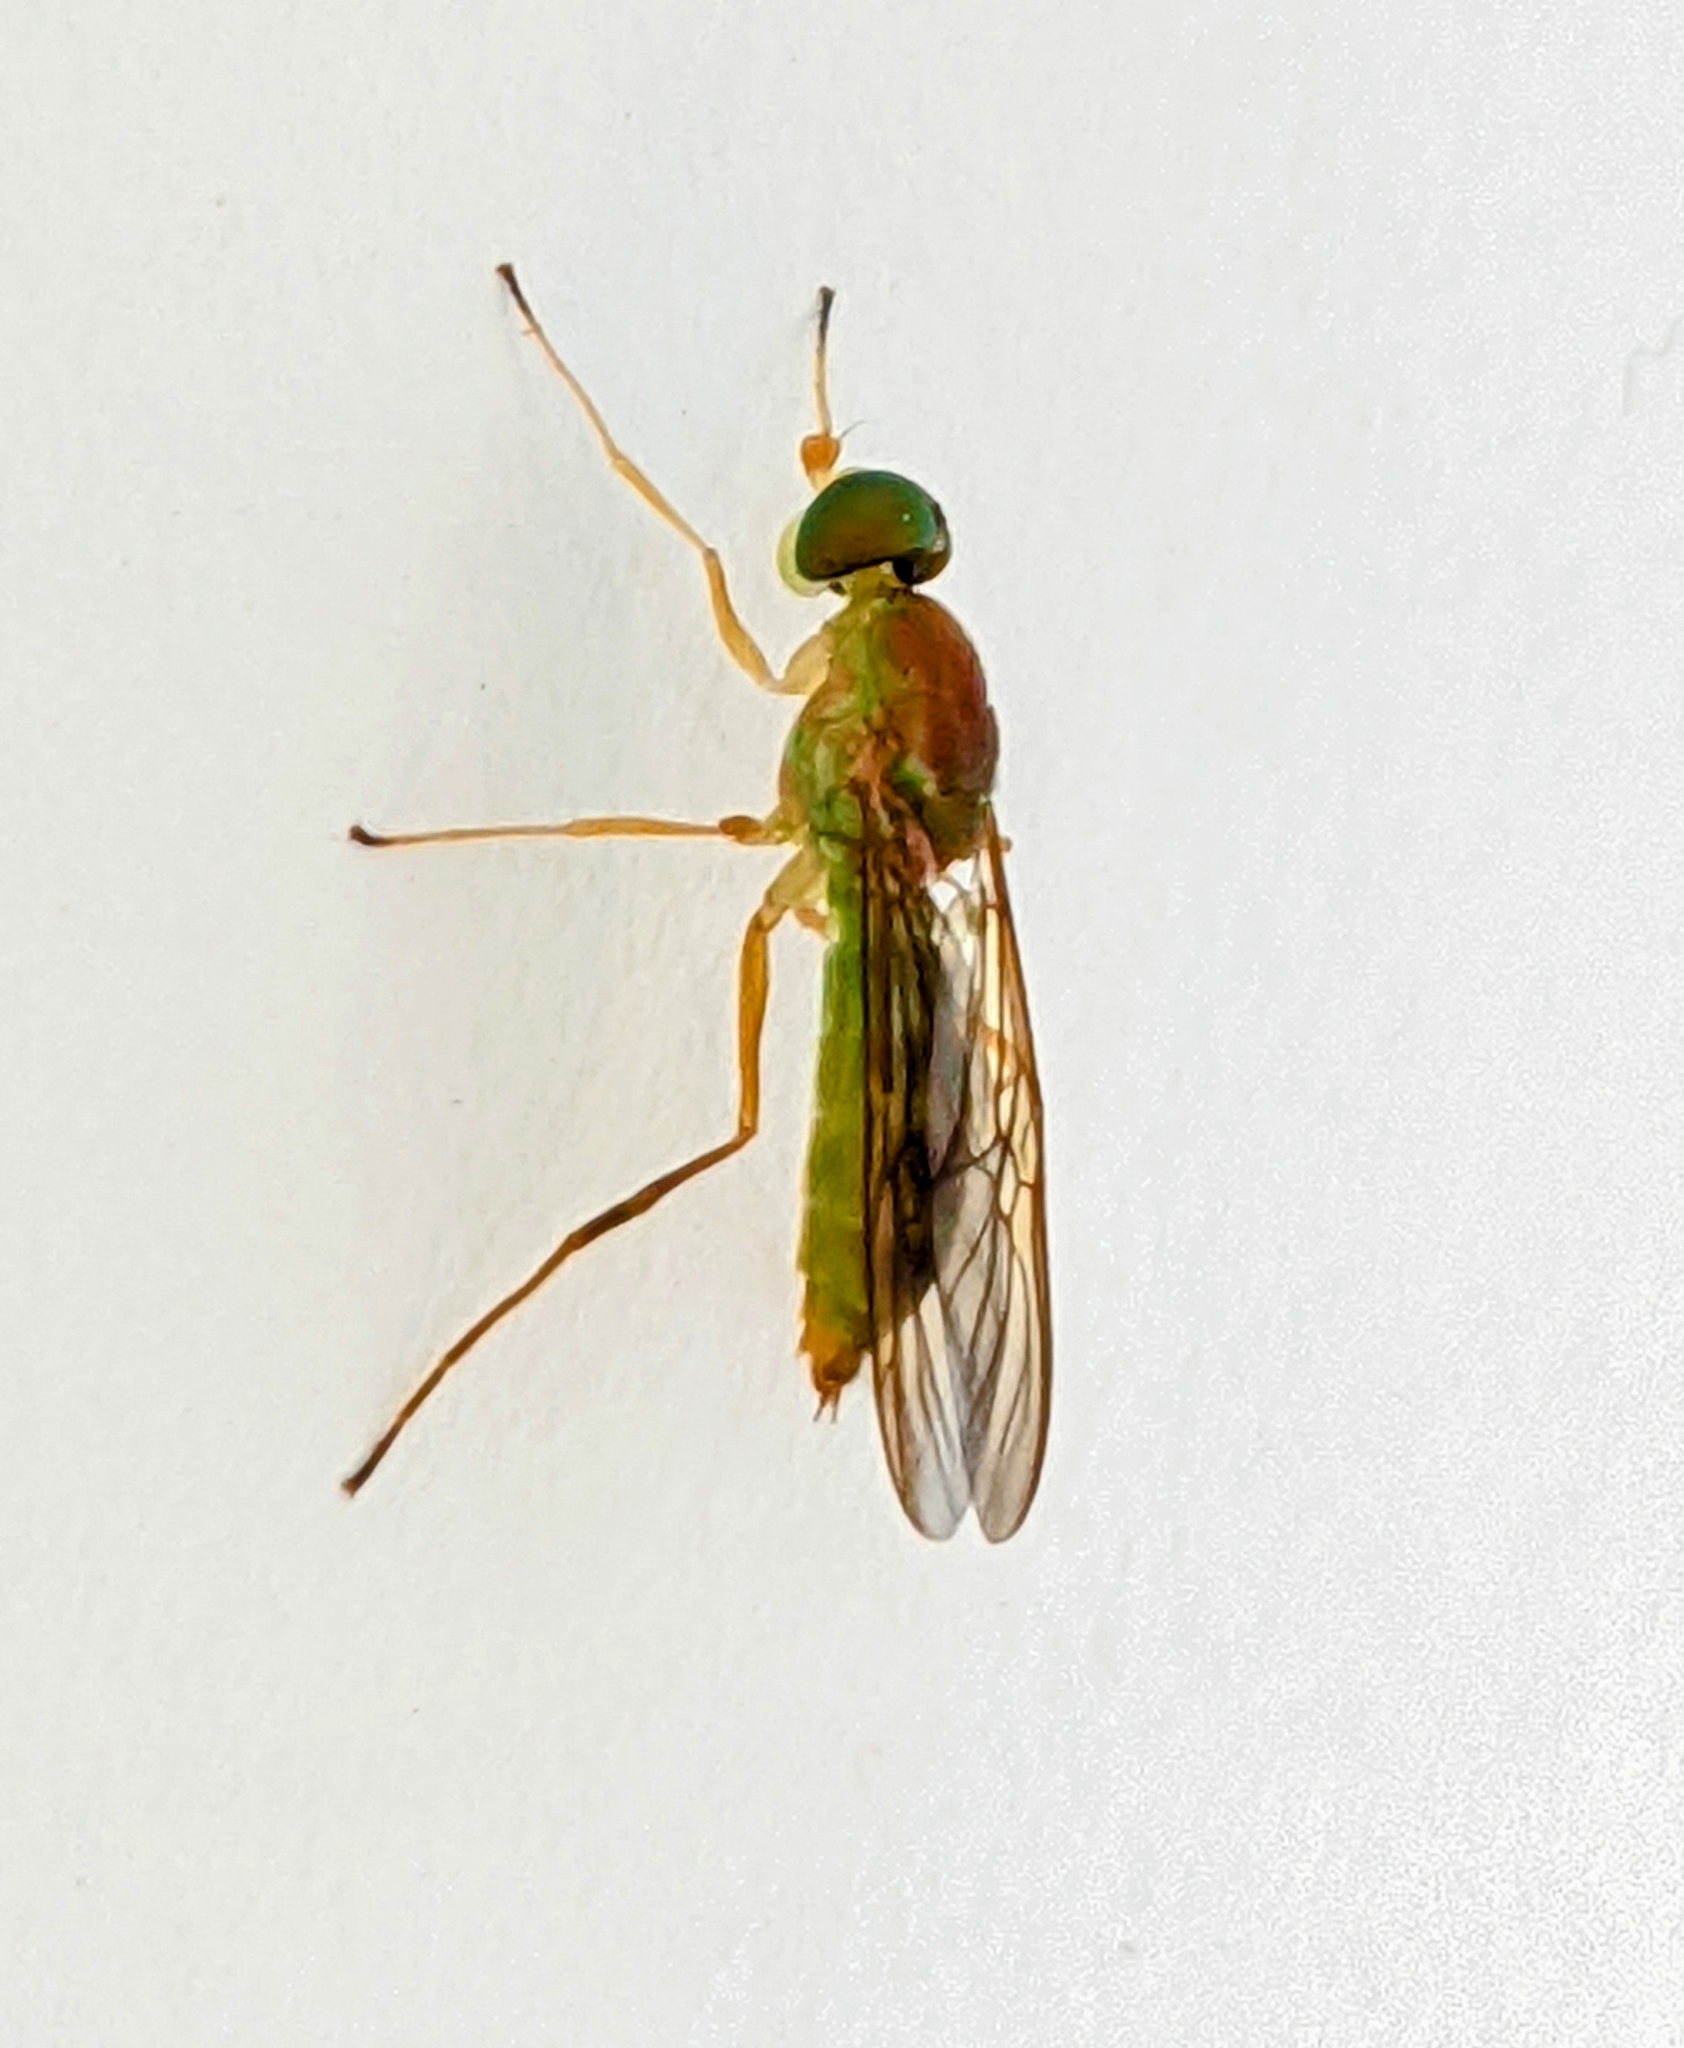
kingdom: Animalia
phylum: Arthropoda
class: Insecta
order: Diptera
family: Stratiomyidae
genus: Ptecticus
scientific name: Ptecticus trivittatus
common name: Compost fly
